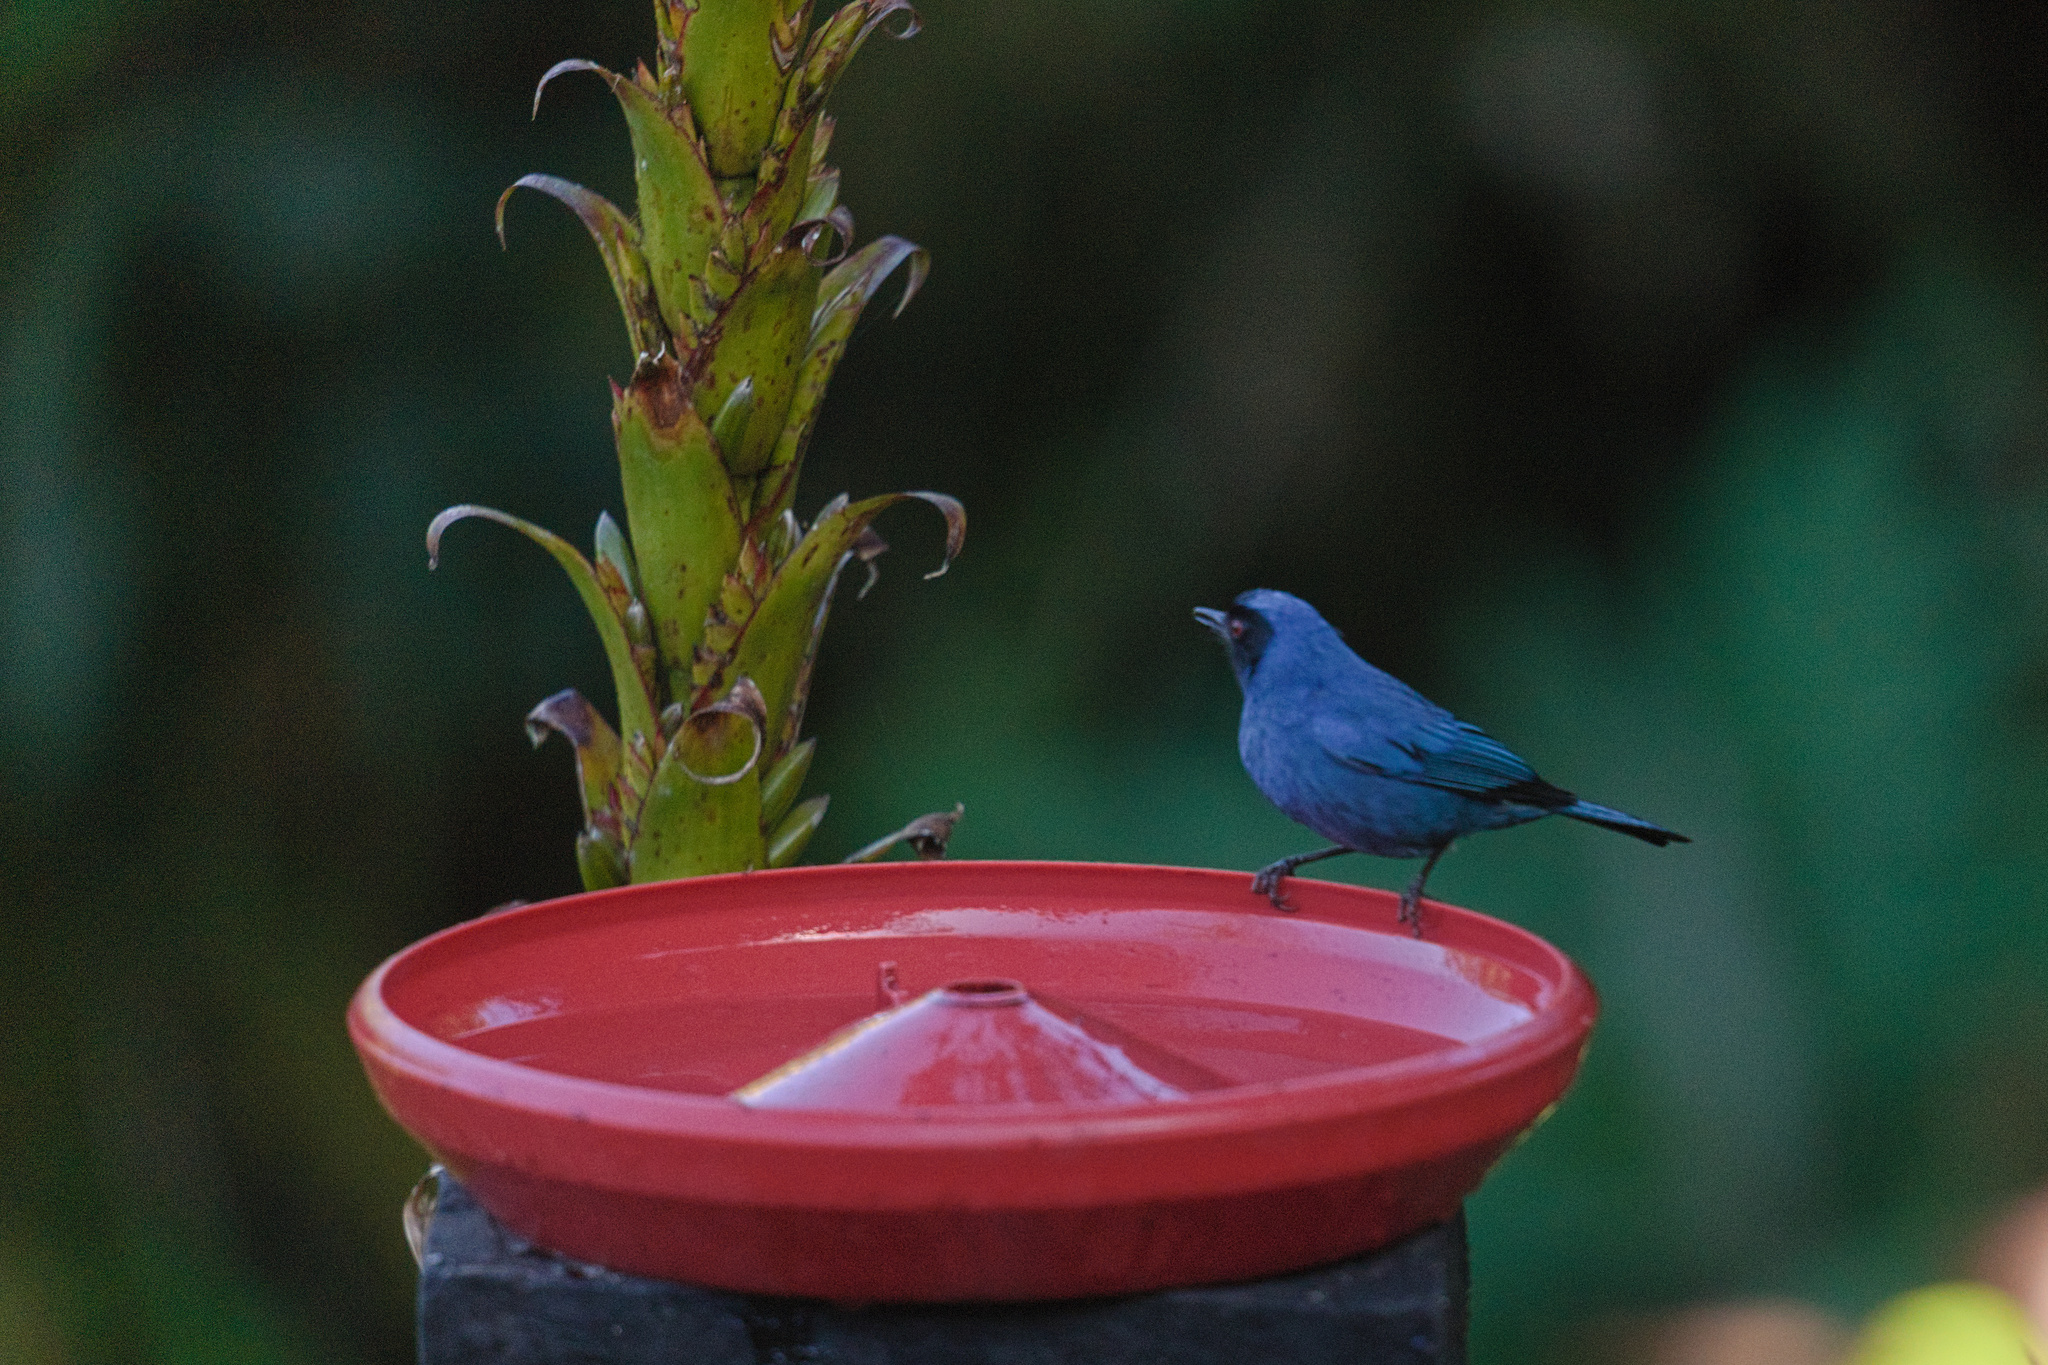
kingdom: Animalia
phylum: Chordata
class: Aves
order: Passeriformes
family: Thraupidae
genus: Diglossa
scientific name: Diglossa cyanea
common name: Masked flowerpiercer
